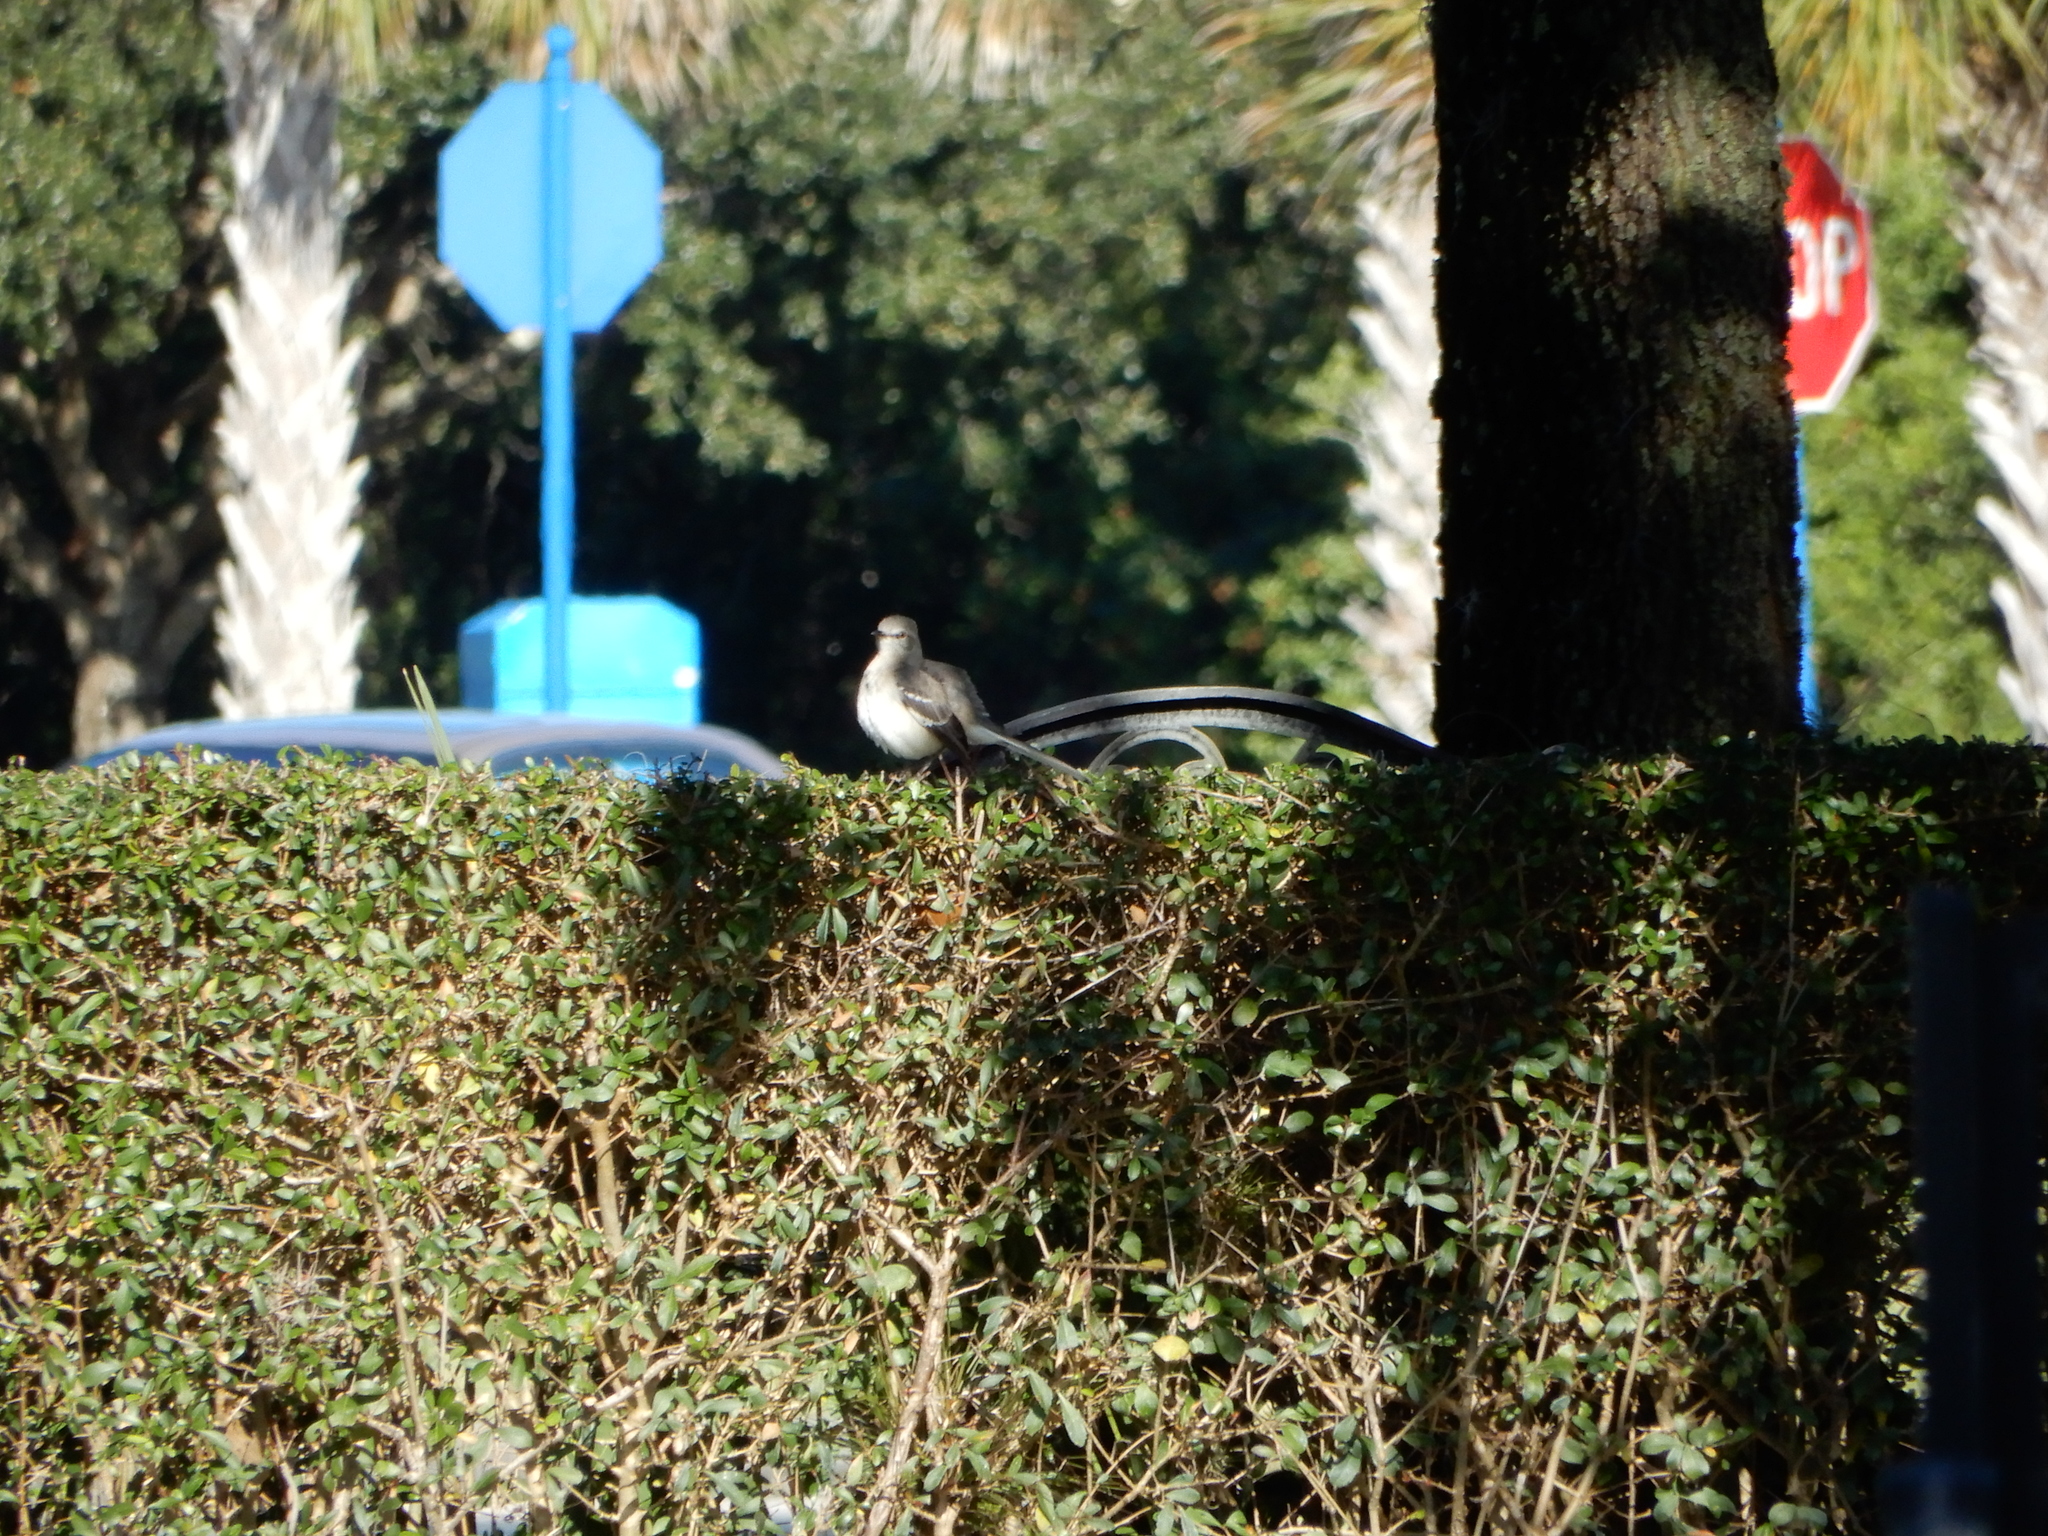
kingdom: Animalia
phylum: Chordata
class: Aves
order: Passeriformes
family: Mimidae
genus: Mimus
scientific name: Mimus polyglottos
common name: Northern mockingbird
